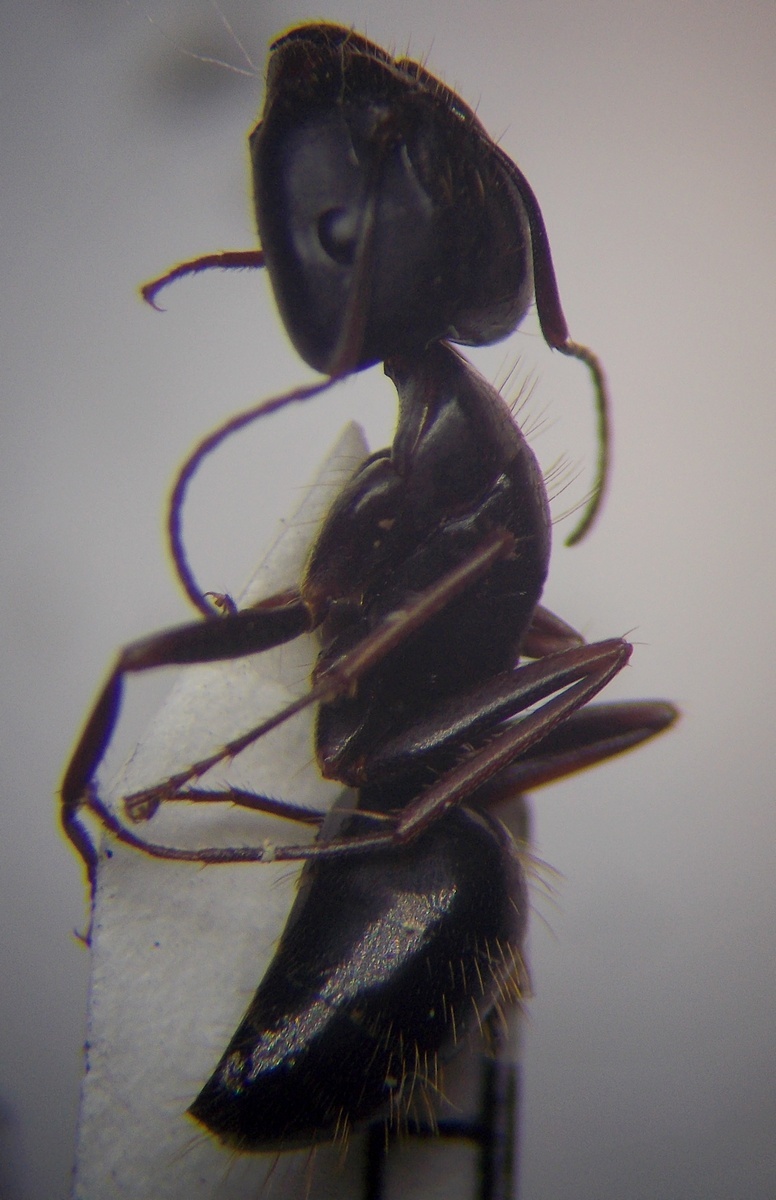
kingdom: Animalia
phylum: Arthropoda
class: Insecta
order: Hymenoptera
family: Formicidae
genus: Camponotus
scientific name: Camponotus aethiops
